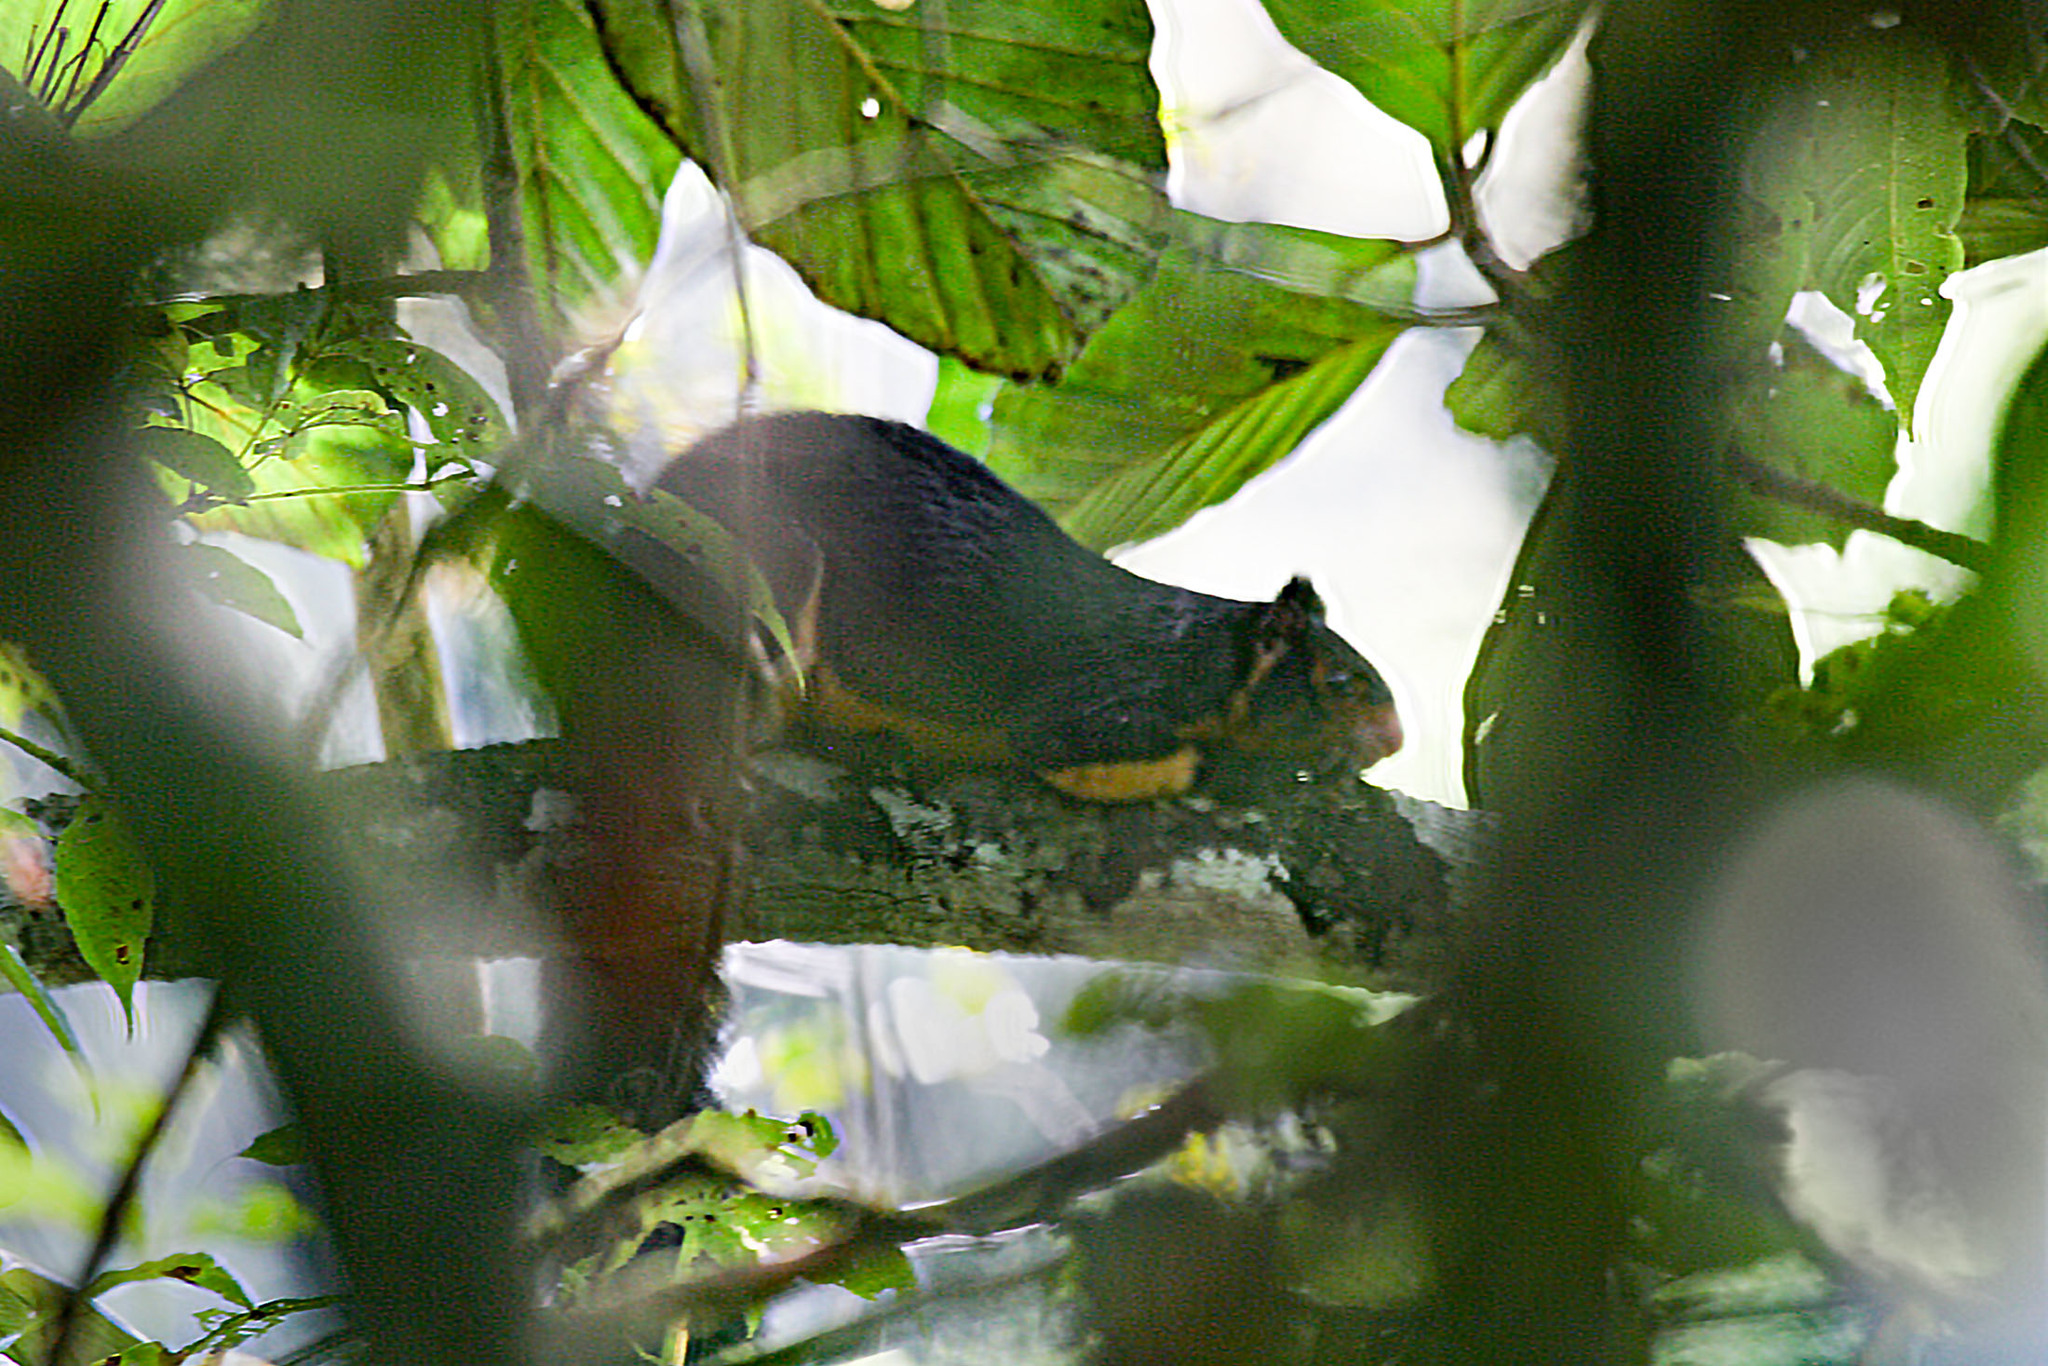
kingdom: Animalia
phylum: Chordata
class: Mammalia
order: Rodentia
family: Sciuridae
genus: Ratufa
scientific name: Ratufa macroura
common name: Sri lankan giant squirrel
